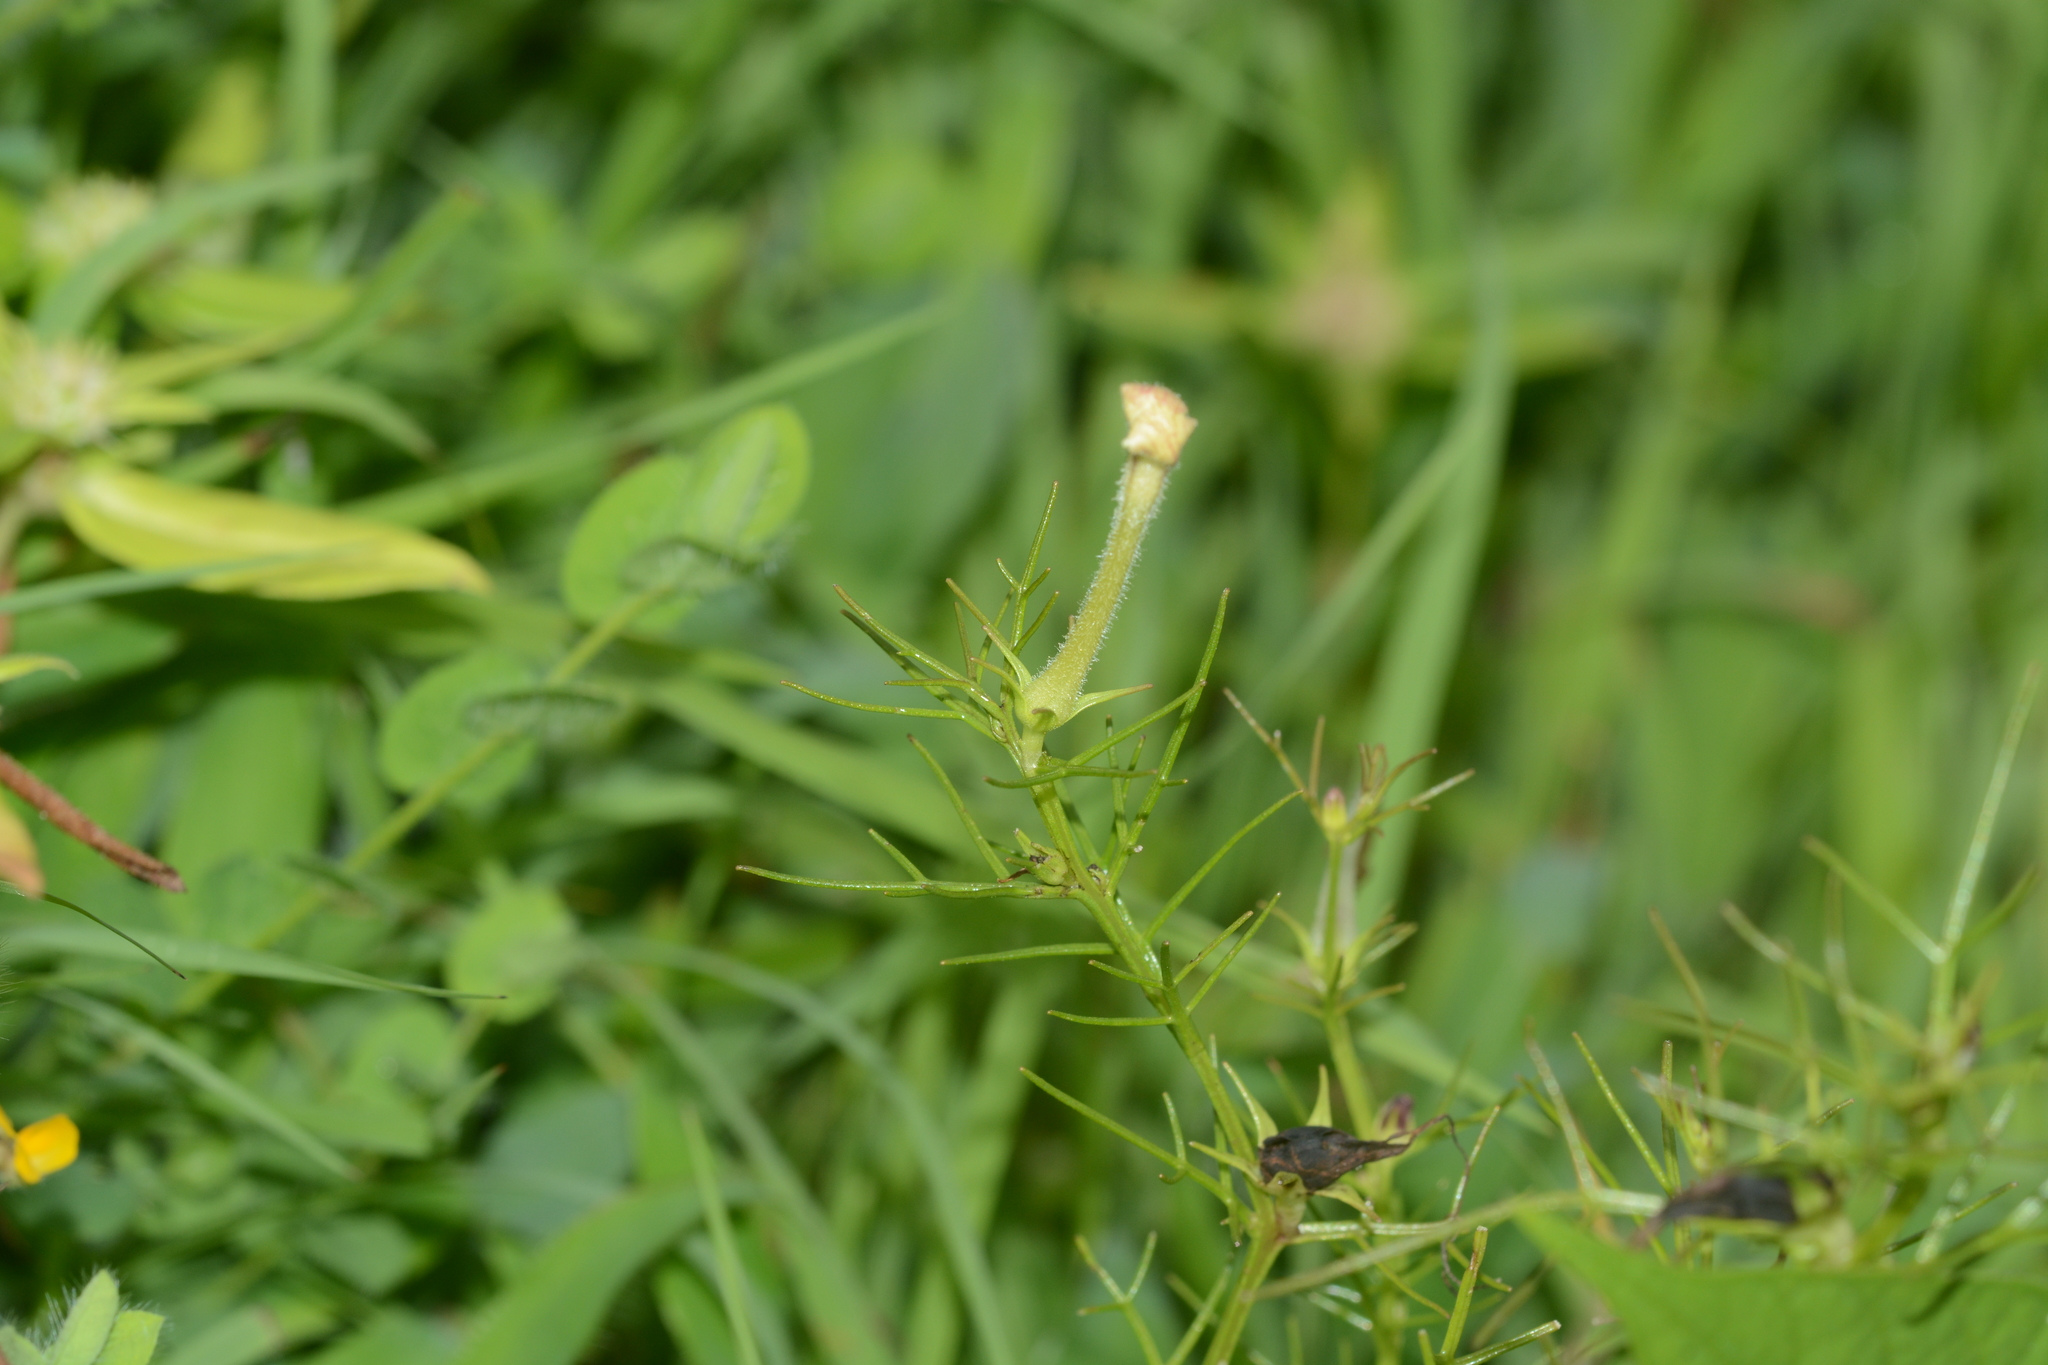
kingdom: Plantae
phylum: Tracheophyta
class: Magnoliopsida
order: Lamiales
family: Orobanchaceae
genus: Rhamphicarpa
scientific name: Rhamphicarpa fistulosa
